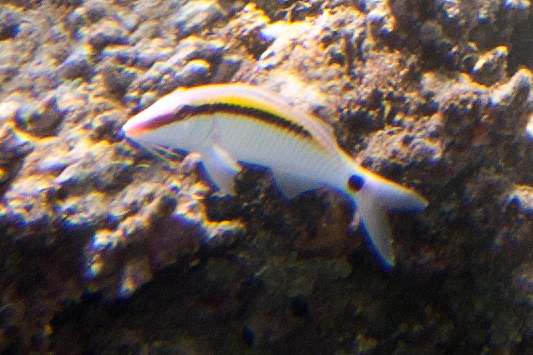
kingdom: Animalia
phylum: Chordata
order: Perciformes
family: Mullidae
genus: Parupeneus
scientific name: Parupeneus barberinus
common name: Dash-and-dot goatfish
